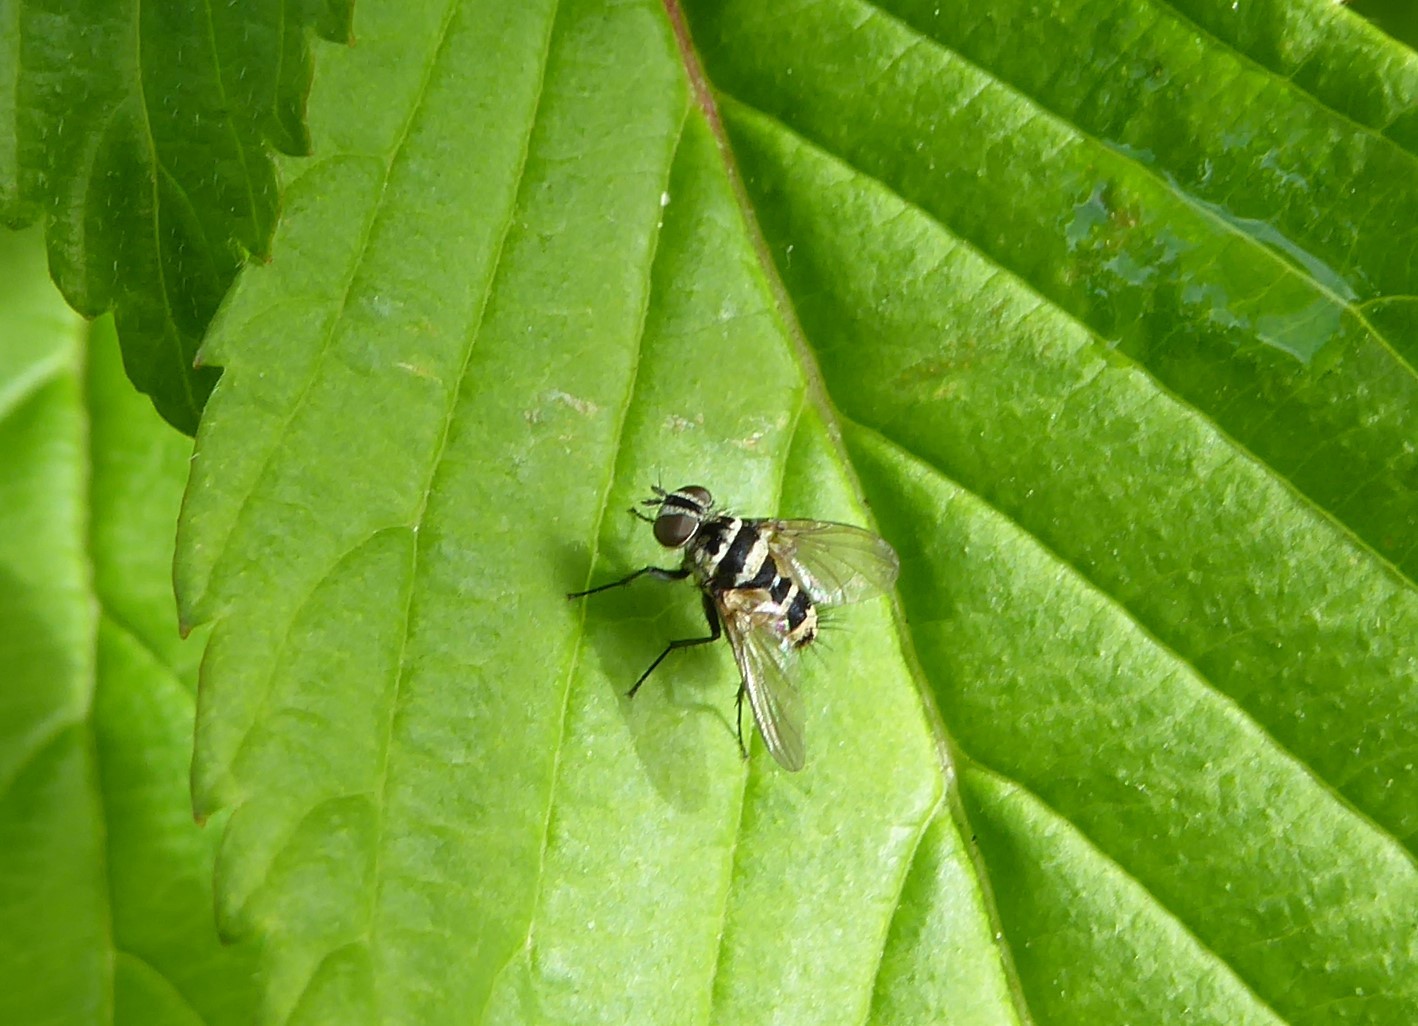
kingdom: Animalia
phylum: Arthropoda
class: Insecta
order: Diptera
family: Tachinidae
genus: Trigonospila
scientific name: Trigonospila brevifacies
